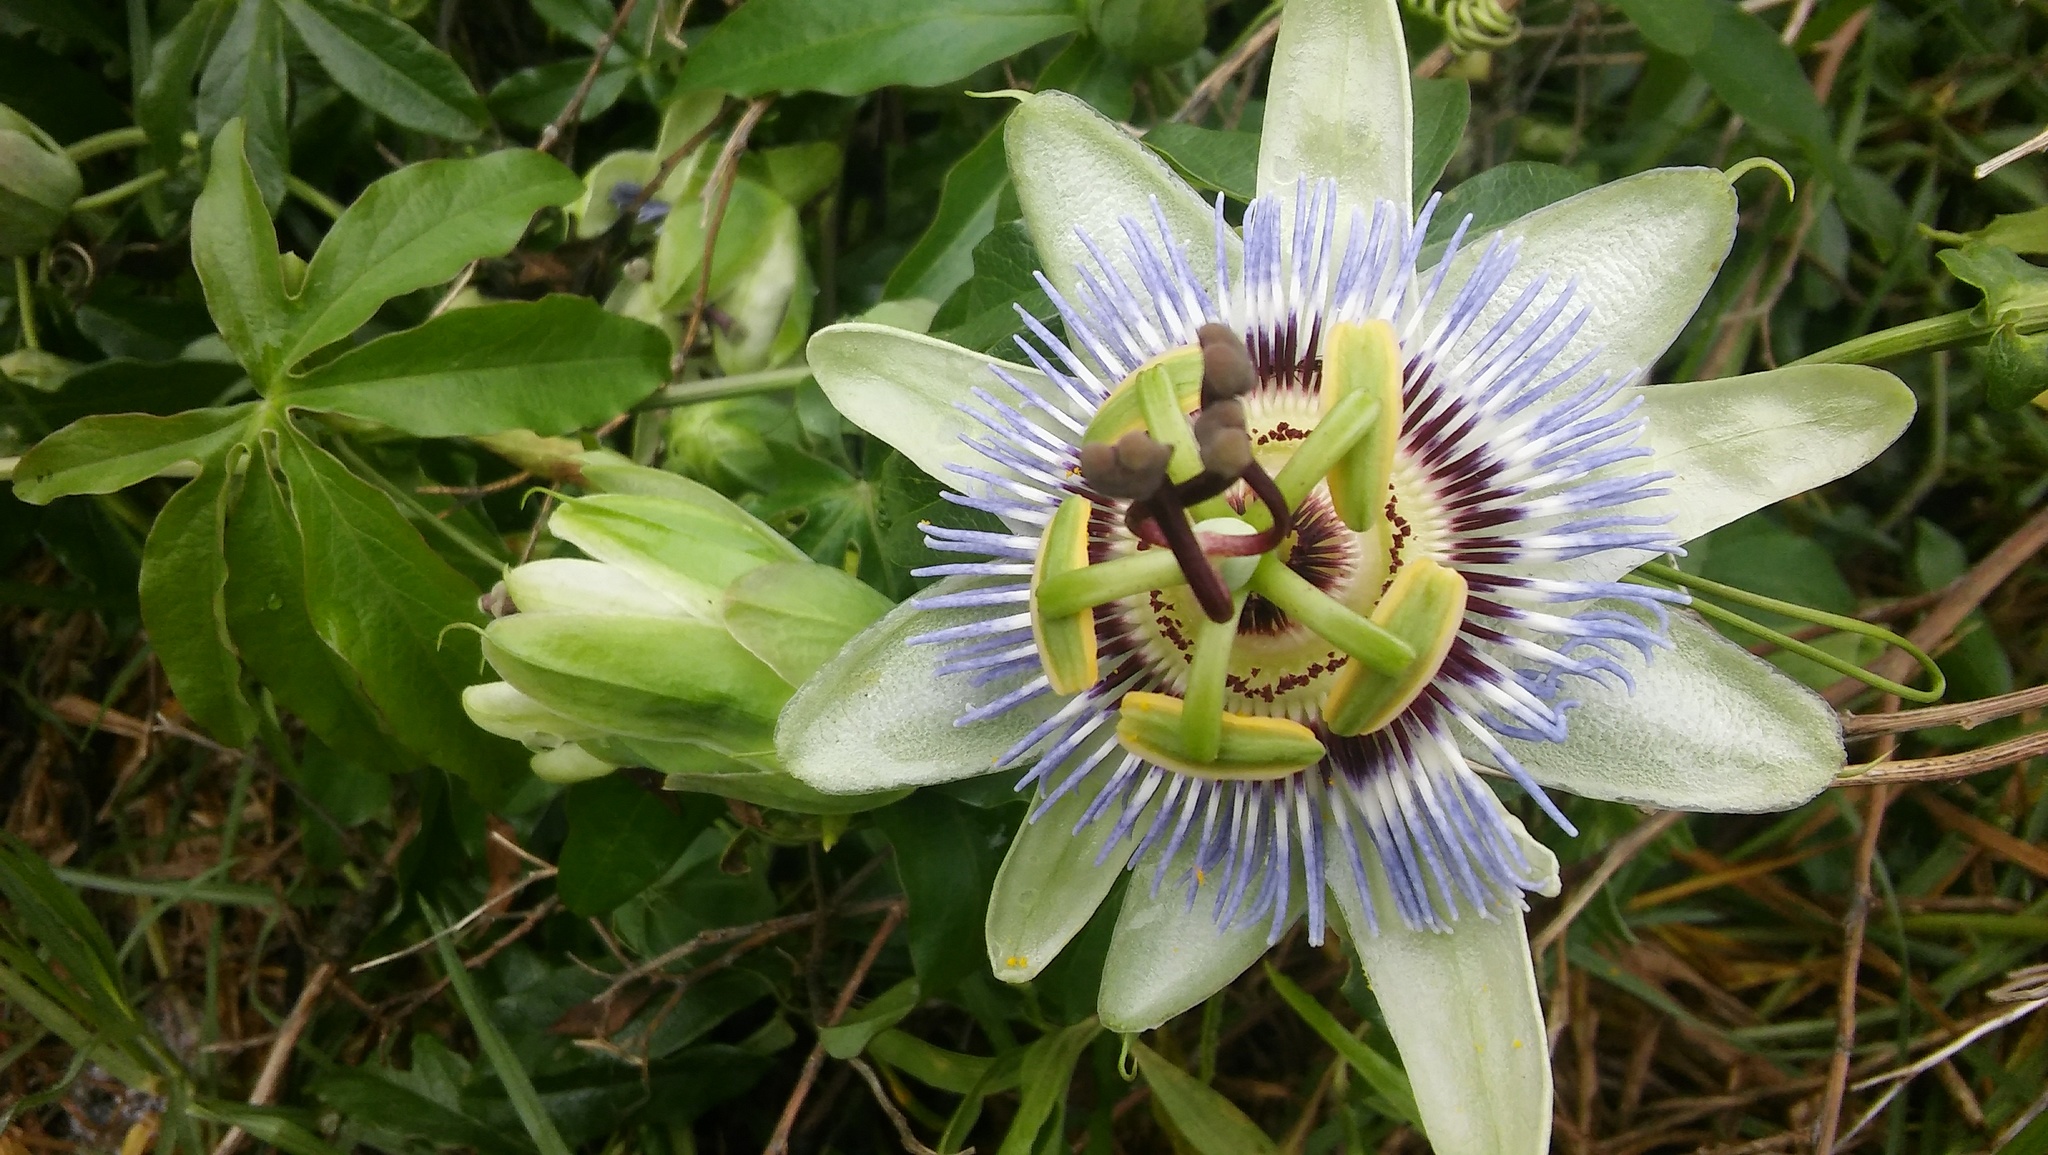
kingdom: Plantae
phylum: Tracheophyta
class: Magnoliopsida
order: Malpighiales
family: Passifloraceae
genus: Passiflora
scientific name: Passiflora caerulea
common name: Blue passionflower
